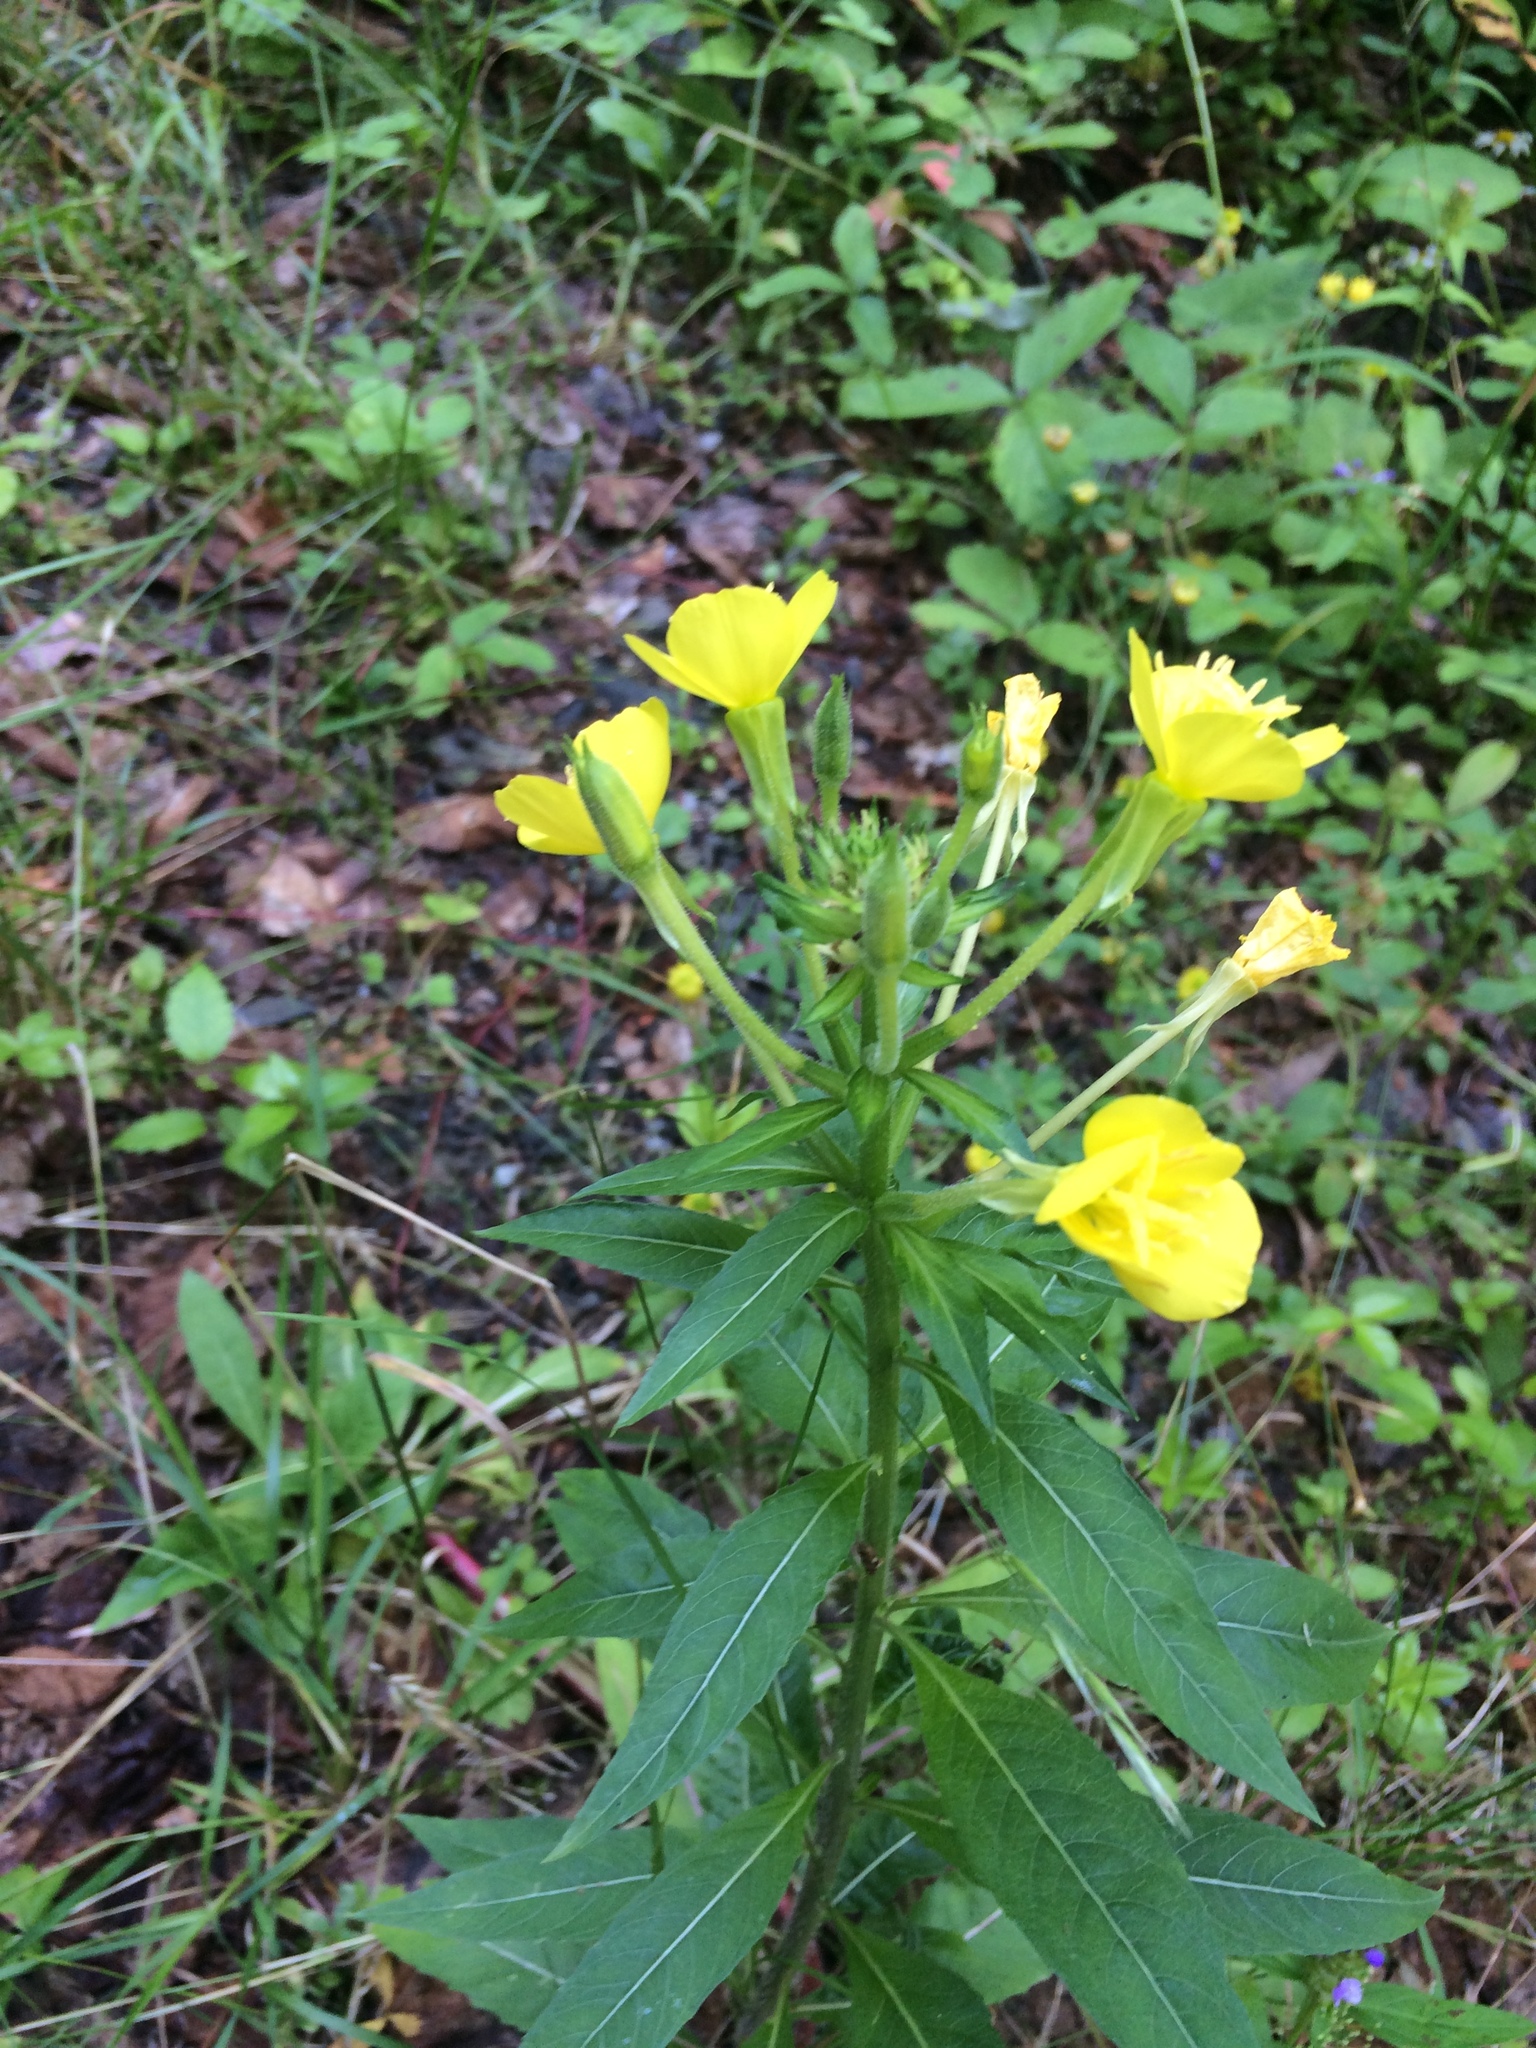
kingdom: Plantae
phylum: Tracheophyta
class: Magnoliopsida
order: Myrtales
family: Onagraceae
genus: Oenothera
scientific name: Oenothera biennis
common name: Common evening-primrose
